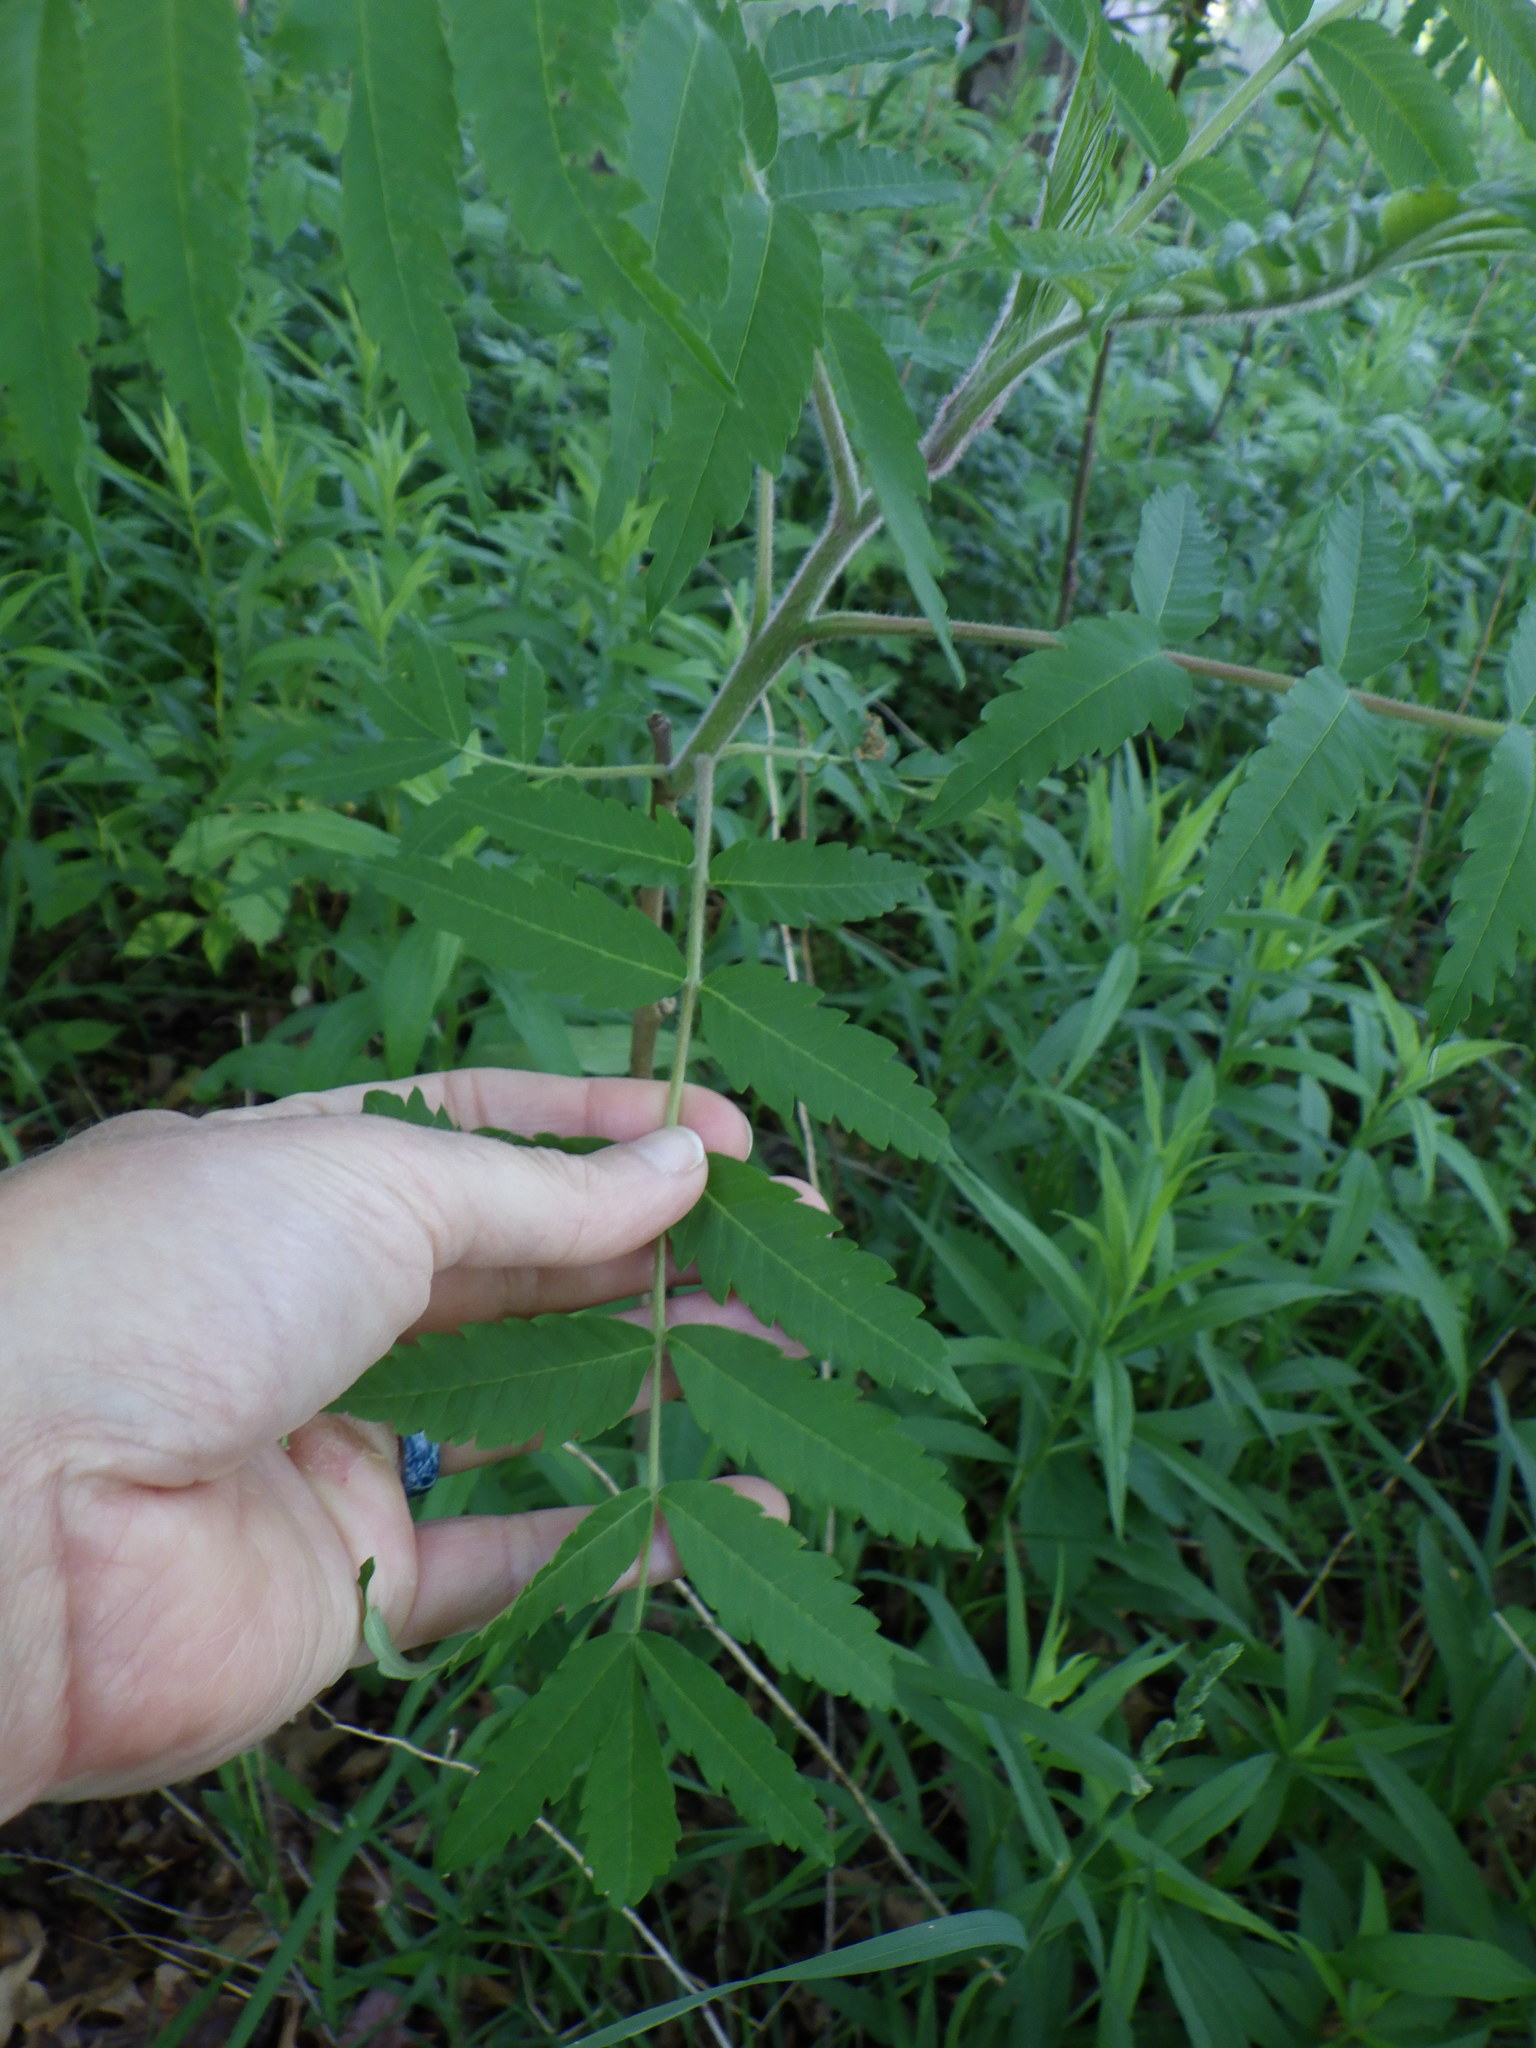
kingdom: Plantae
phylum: Tracheophyta
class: Magnoliopsida
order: Sapindales
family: Anacardiaceae
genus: Rhus
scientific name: Rhus typhina
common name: Staghorn sumac
